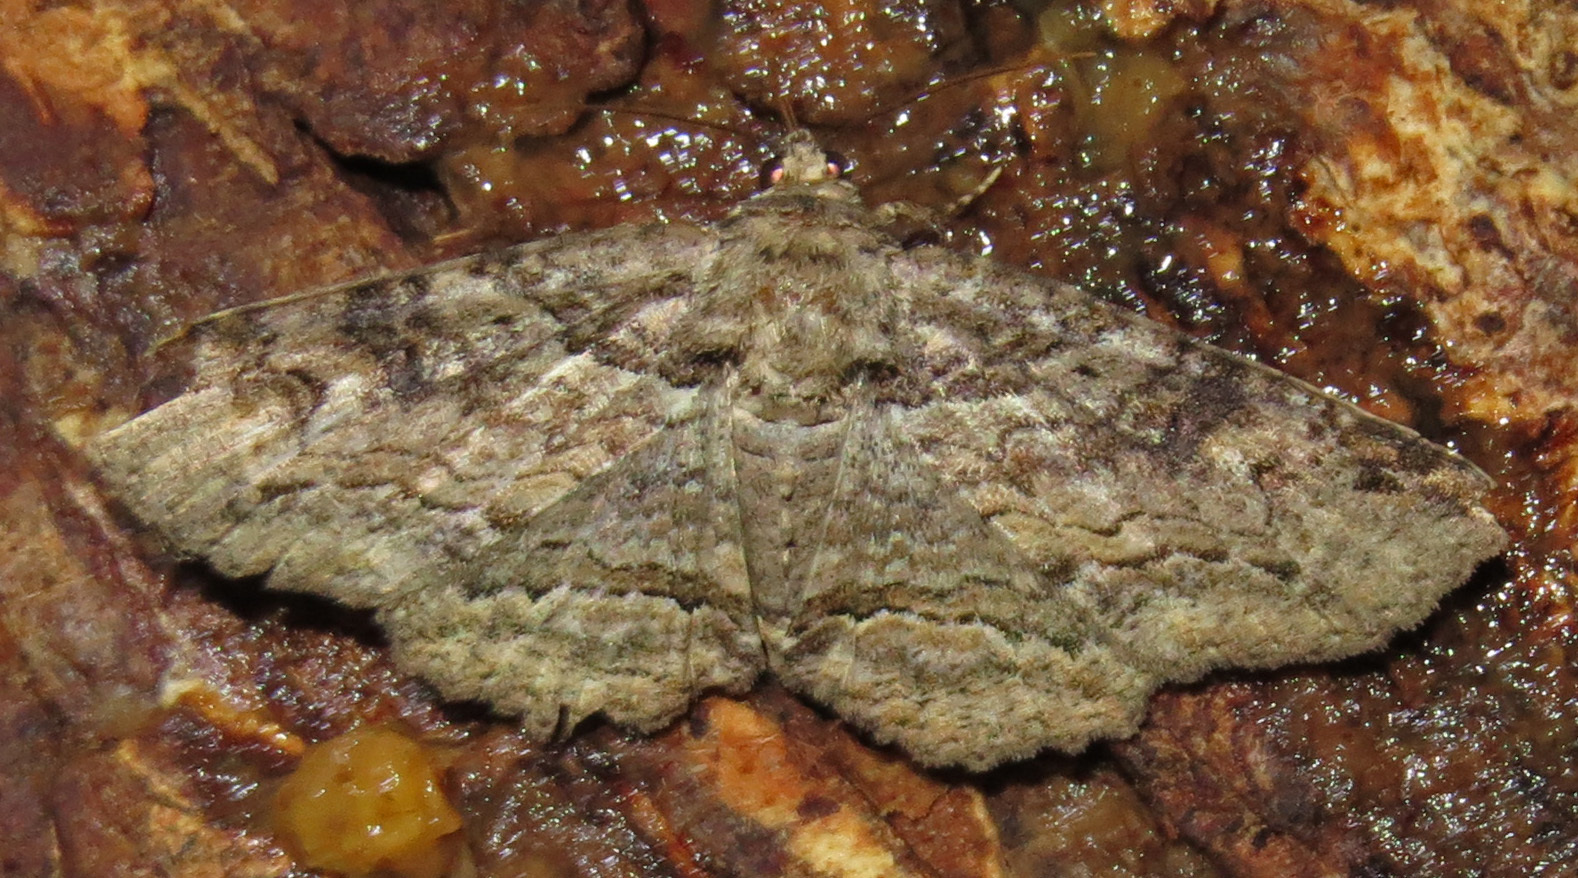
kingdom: Animalia
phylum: Arthropoda
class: Insecta
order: Lepidoptera
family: Erebidae
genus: Zale
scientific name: Zale galbanata
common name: Maple zale
